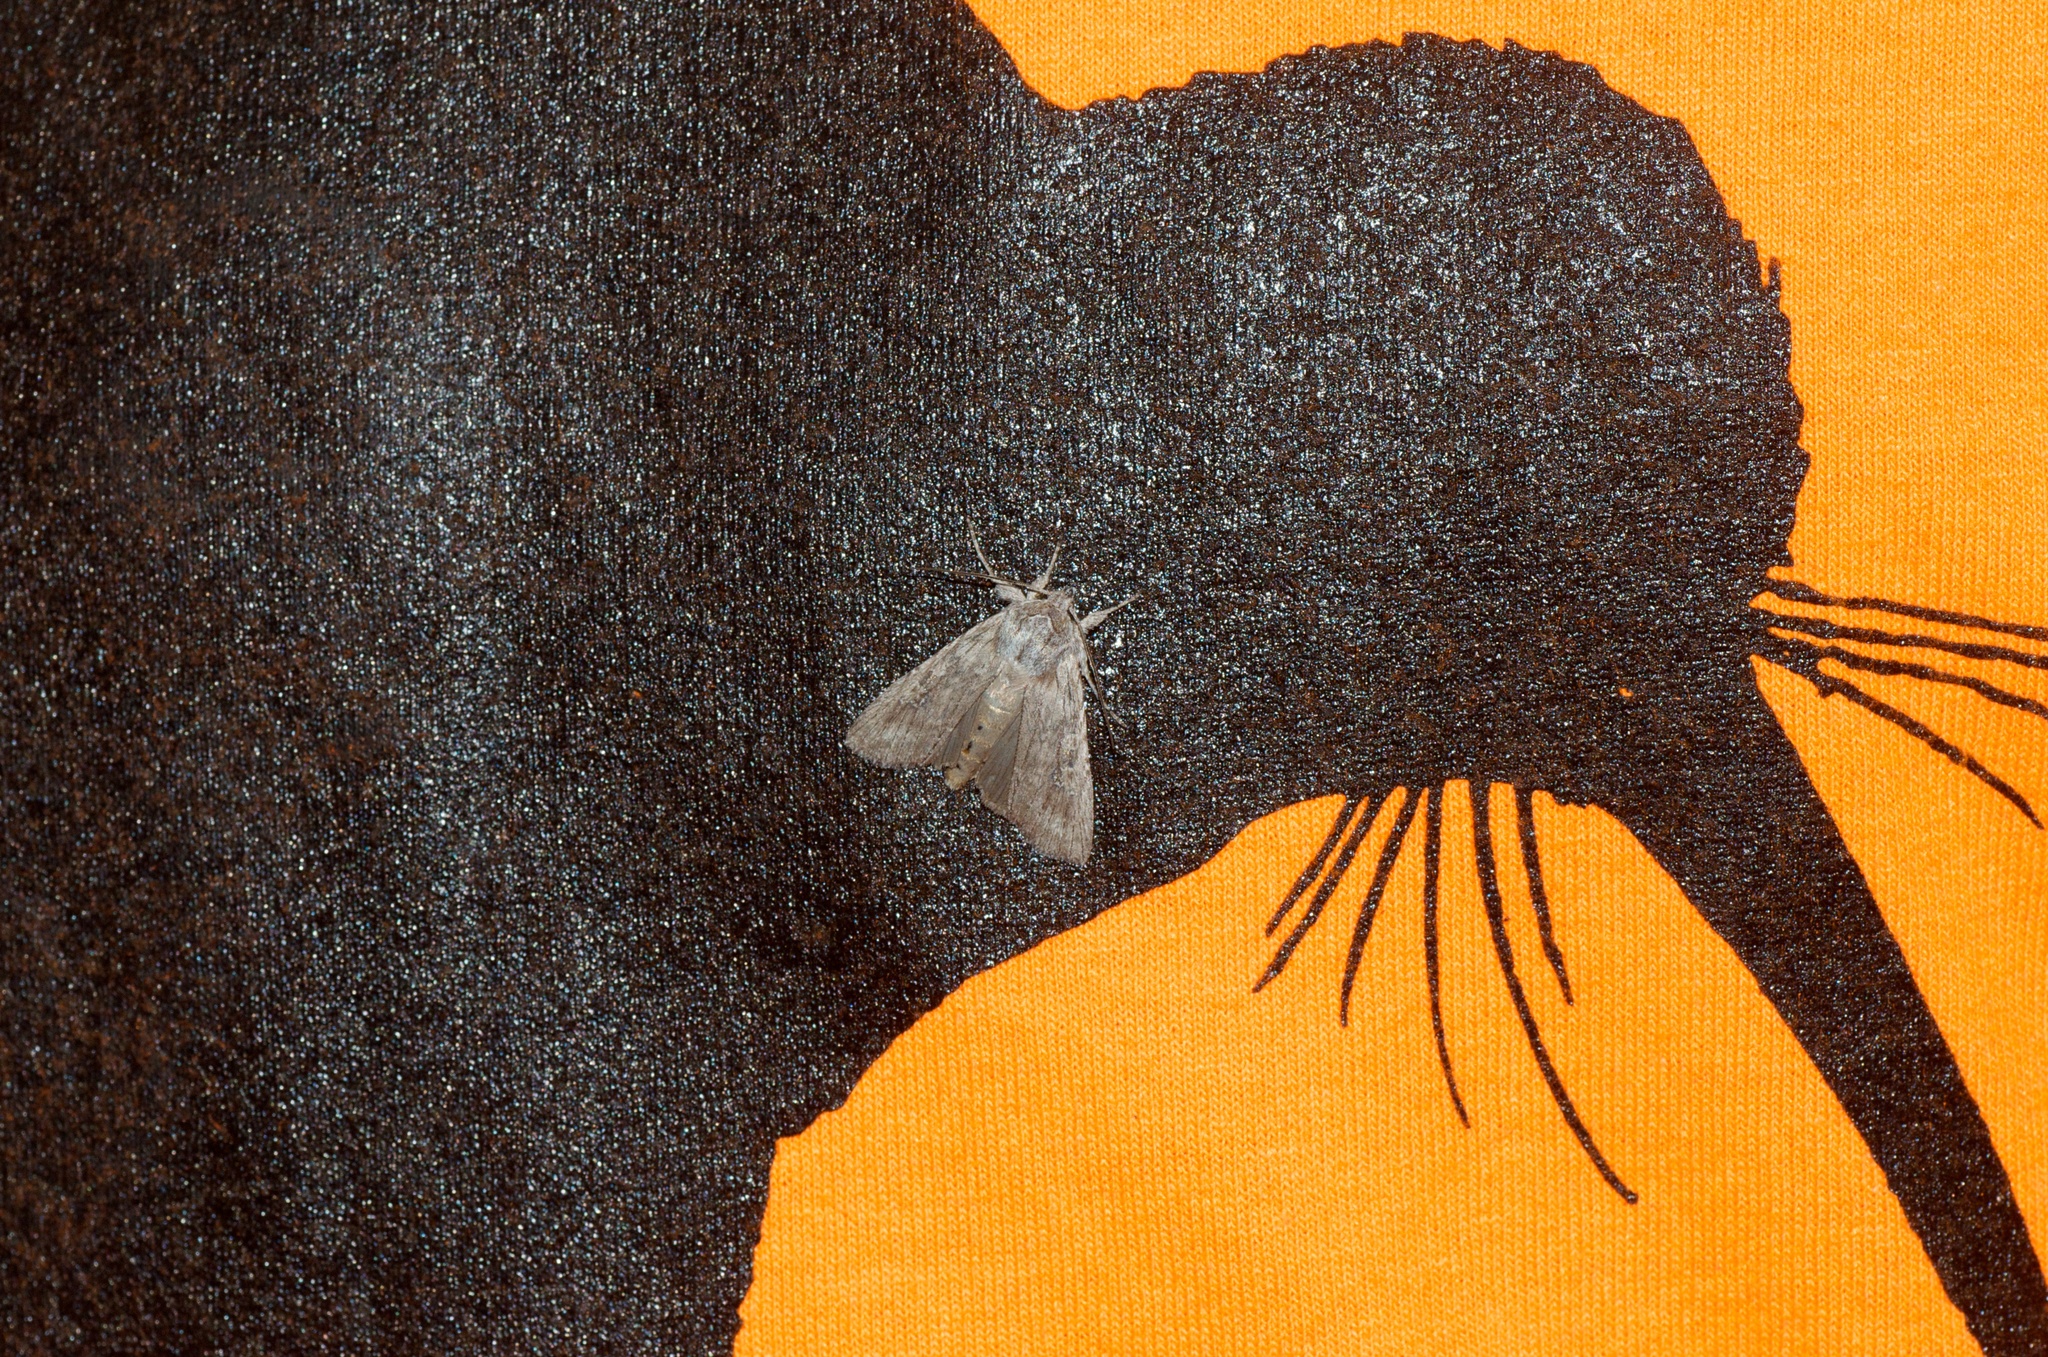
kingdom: Animalia
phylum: Arthropoda
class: Insecta
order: Lepidoptera
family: Noctuidae
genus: Physetica
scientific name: Physetica phricias
